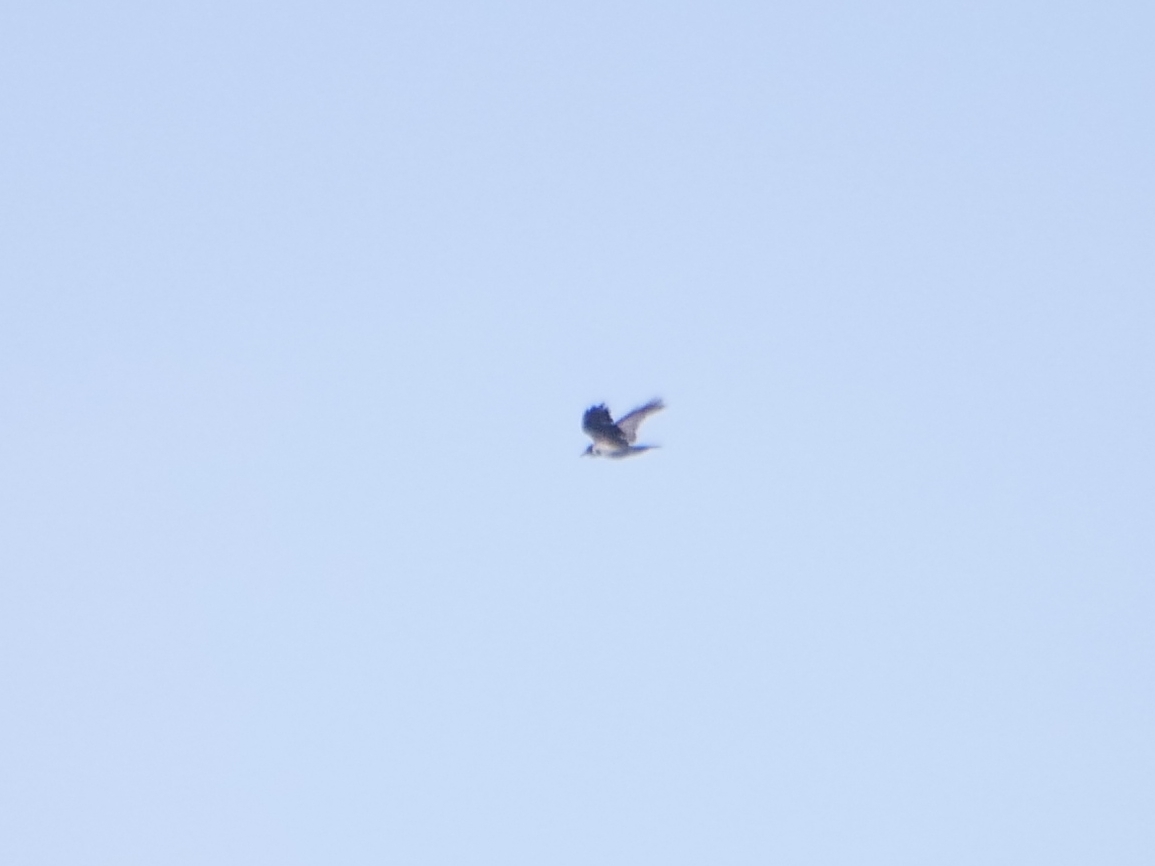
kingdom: Animalia
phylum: Chordata
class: Aves
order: Passeriformes
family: Corvidae
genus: Corvus
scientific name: Corvus cornix
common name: Hooded crow
